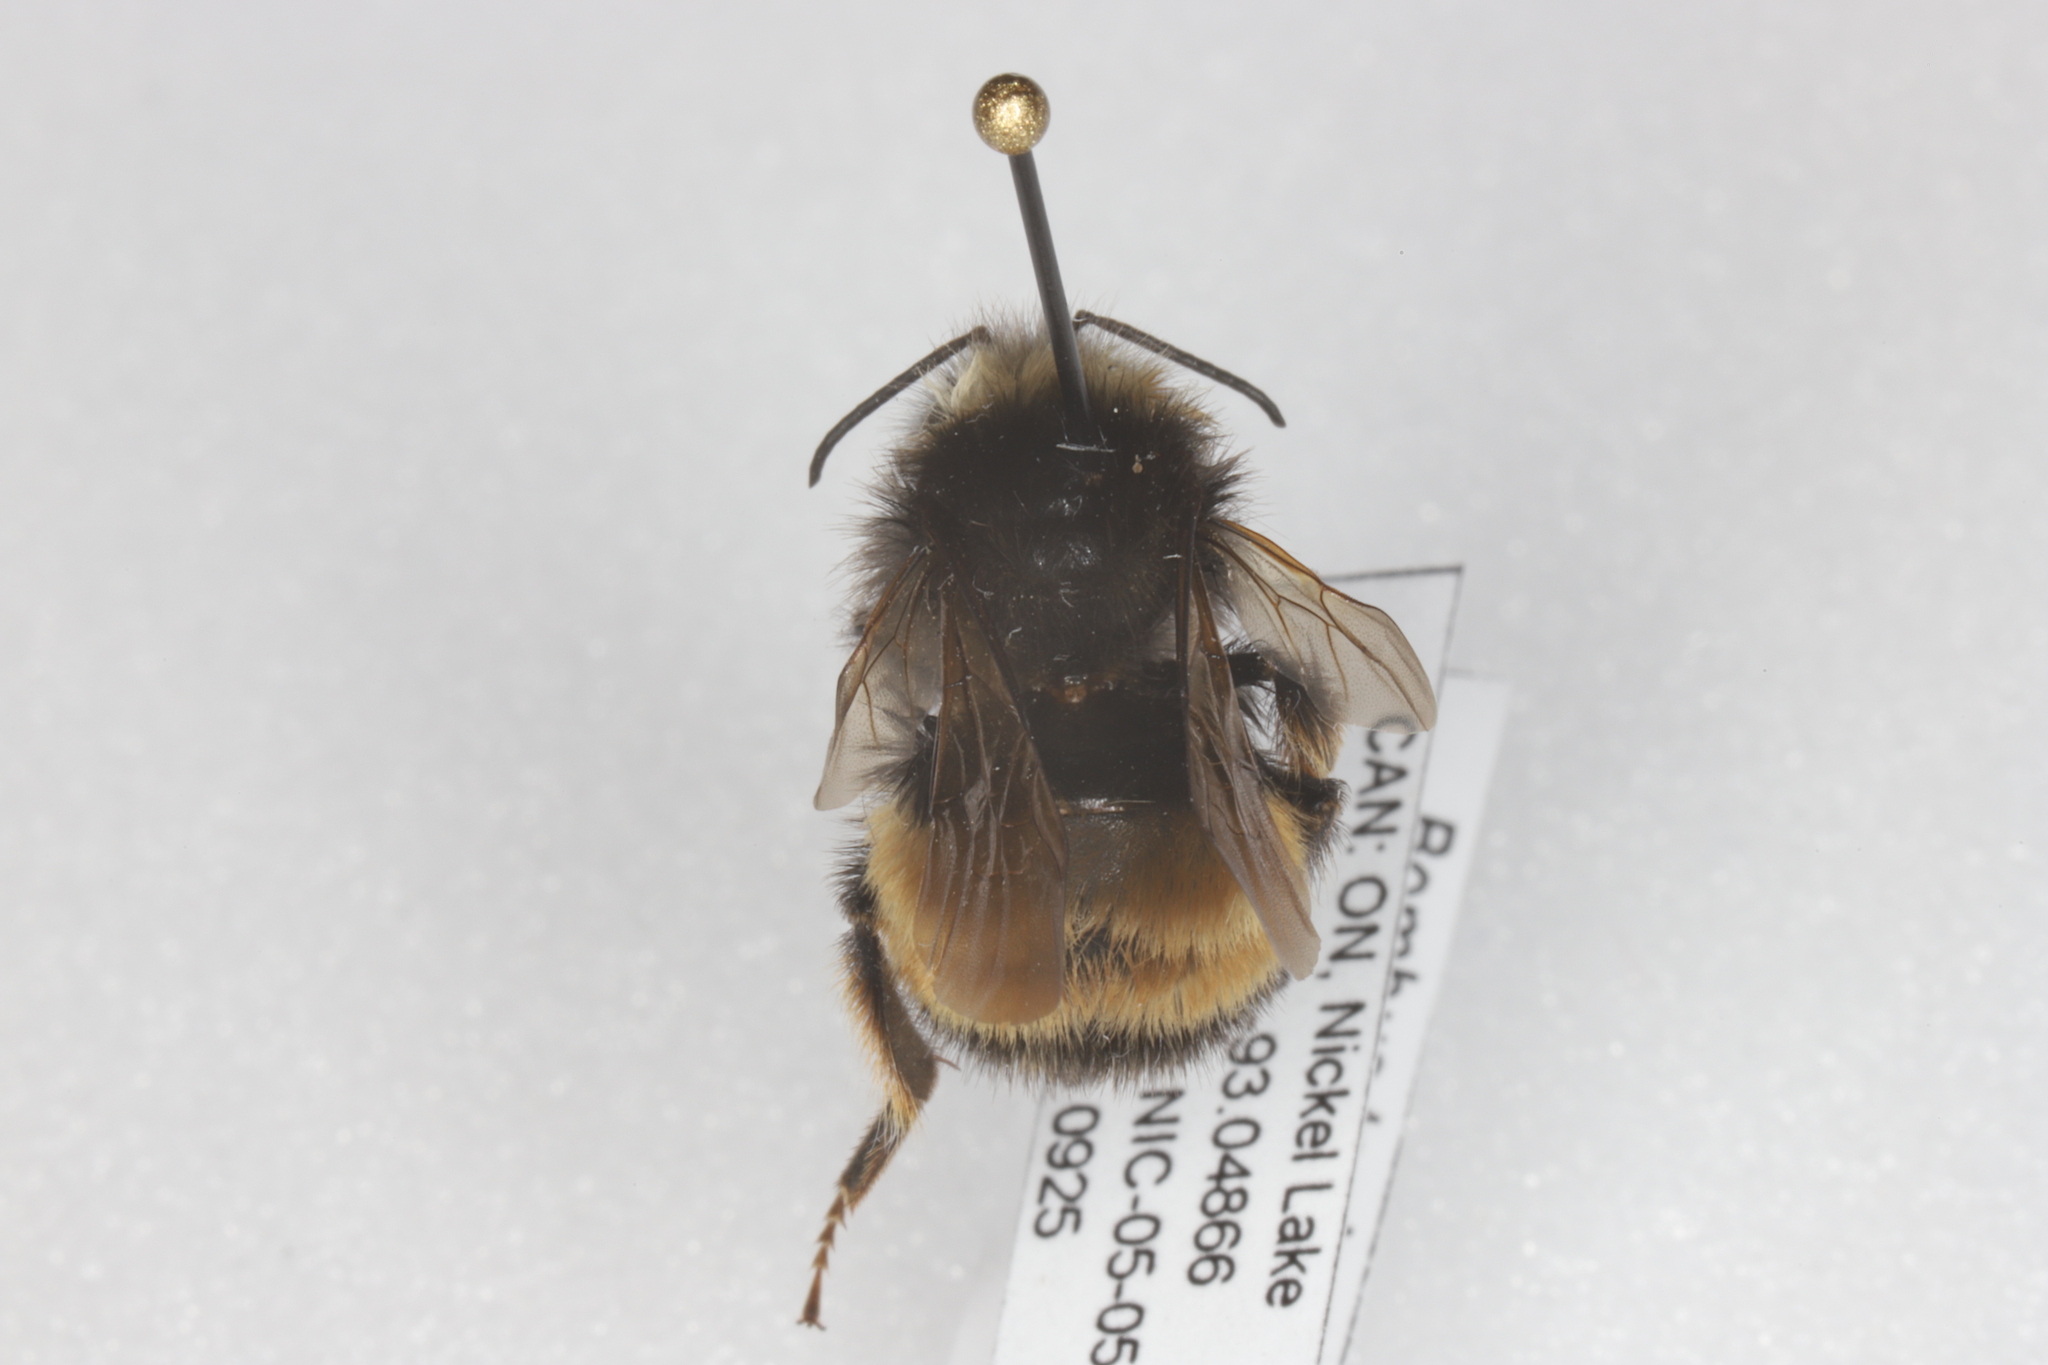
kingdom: Animalia
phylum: Arthropoda
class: Insecta
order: Hymenoptera
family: Apidae
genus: Bombus
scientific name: Bombus terricola
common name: Yellow-banded bumble bee
